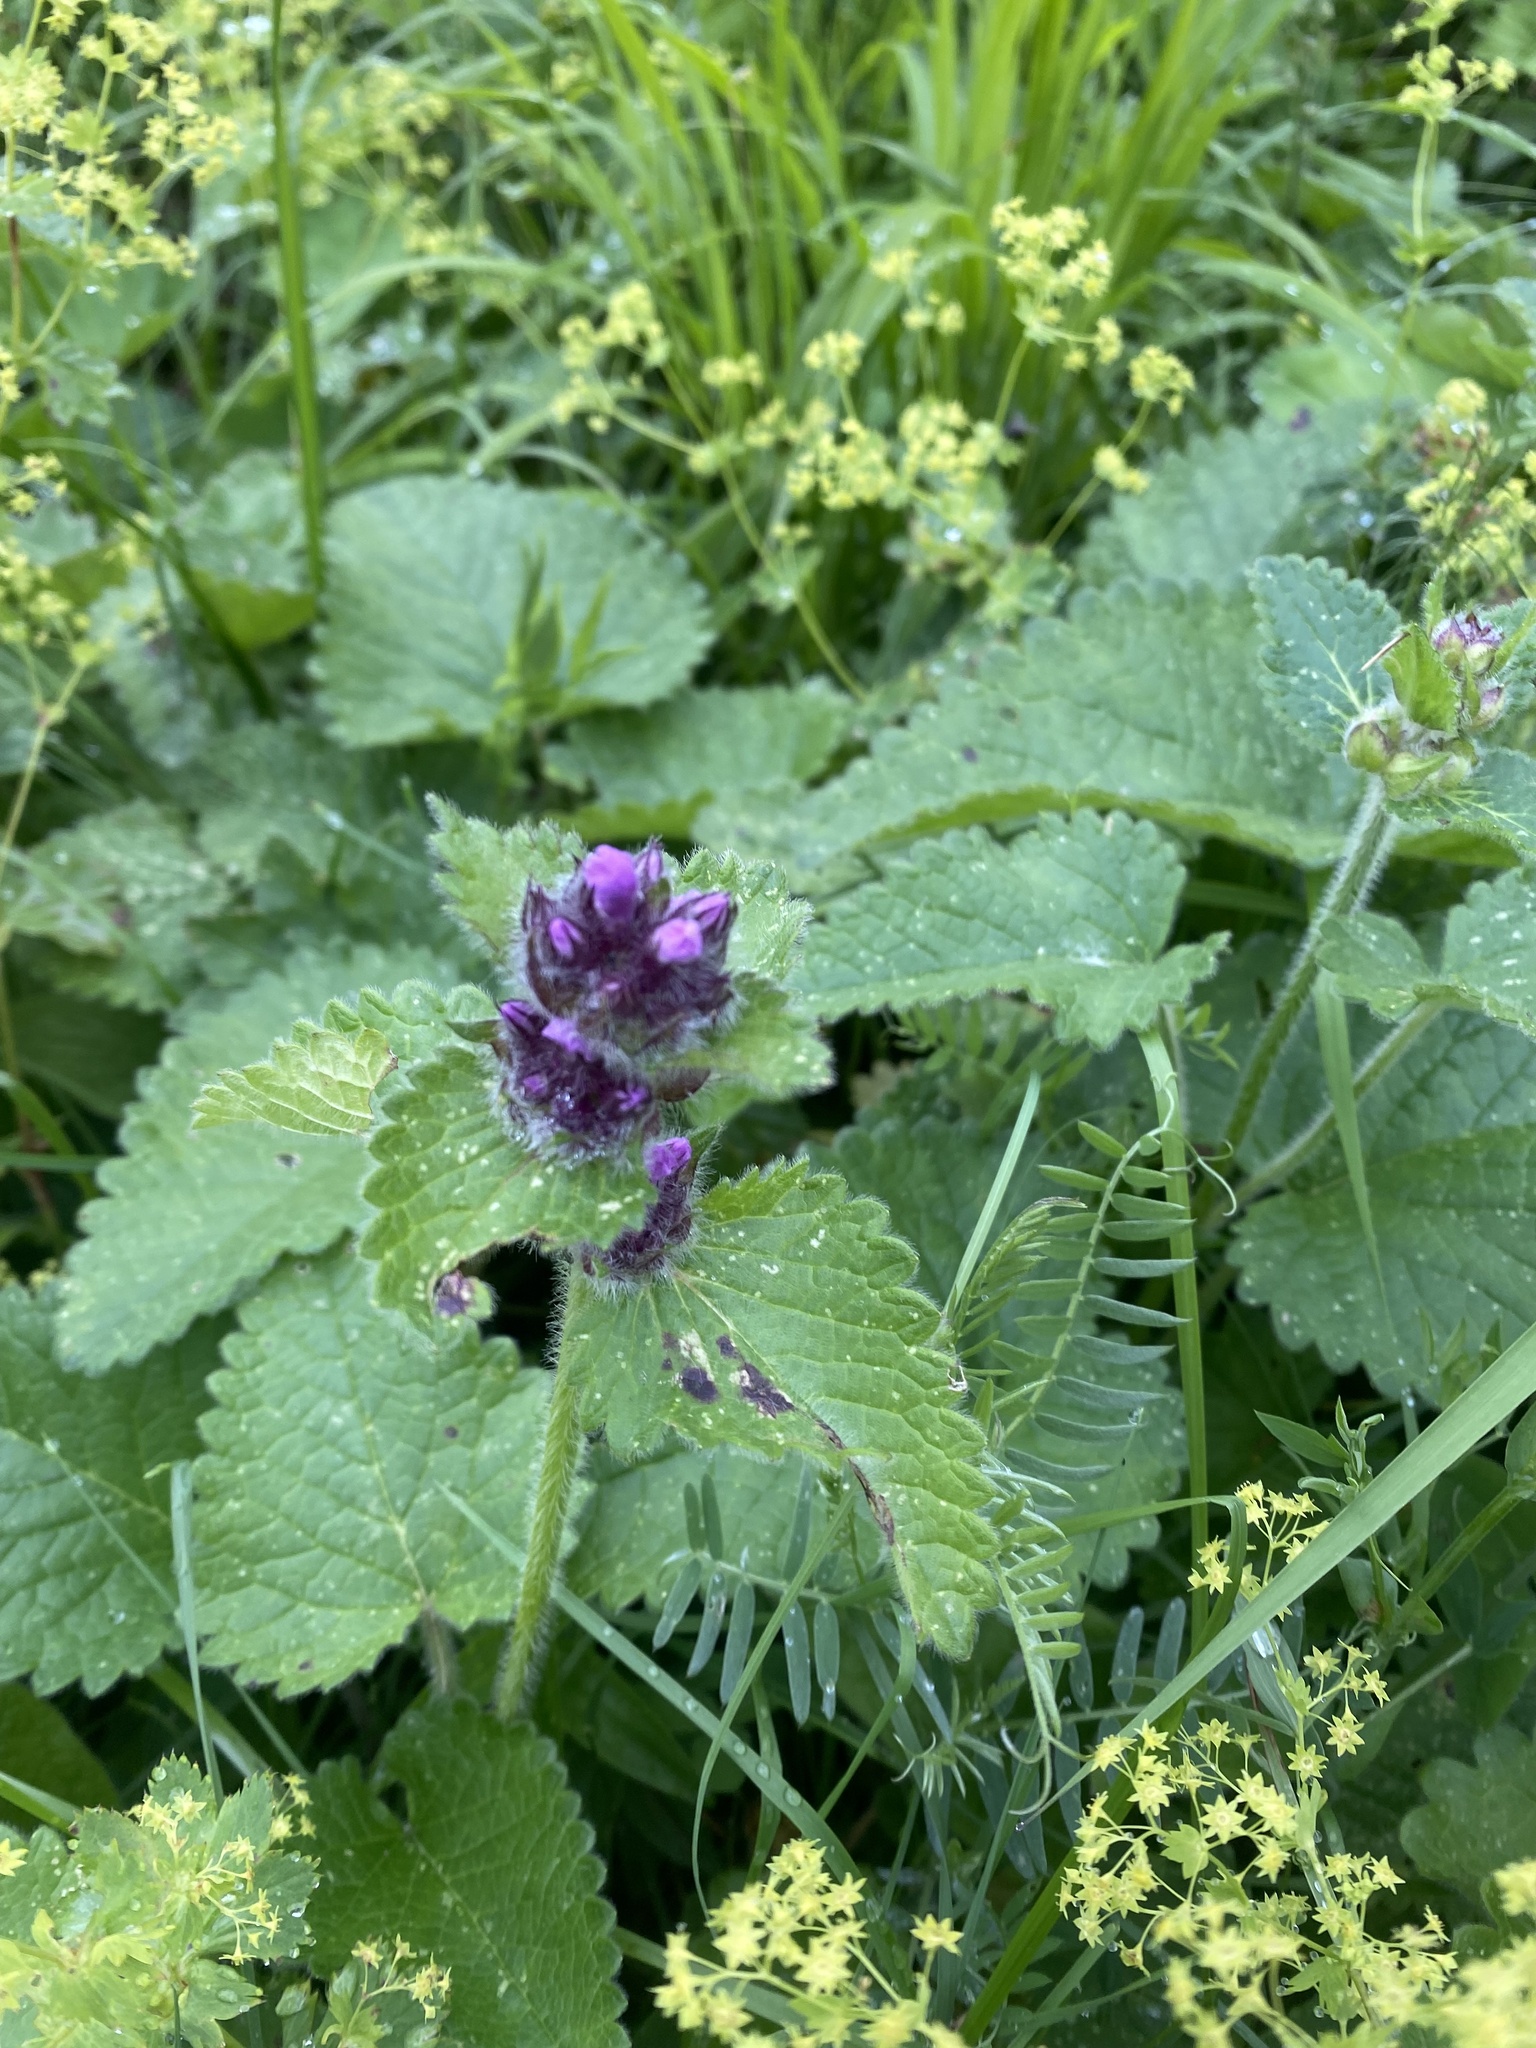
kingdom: Plantae
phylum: Tracheophyta
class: Magnoliopsida
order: Lamiales
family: Lamiaceae
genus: Betonica
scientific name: Betonica macrantha
